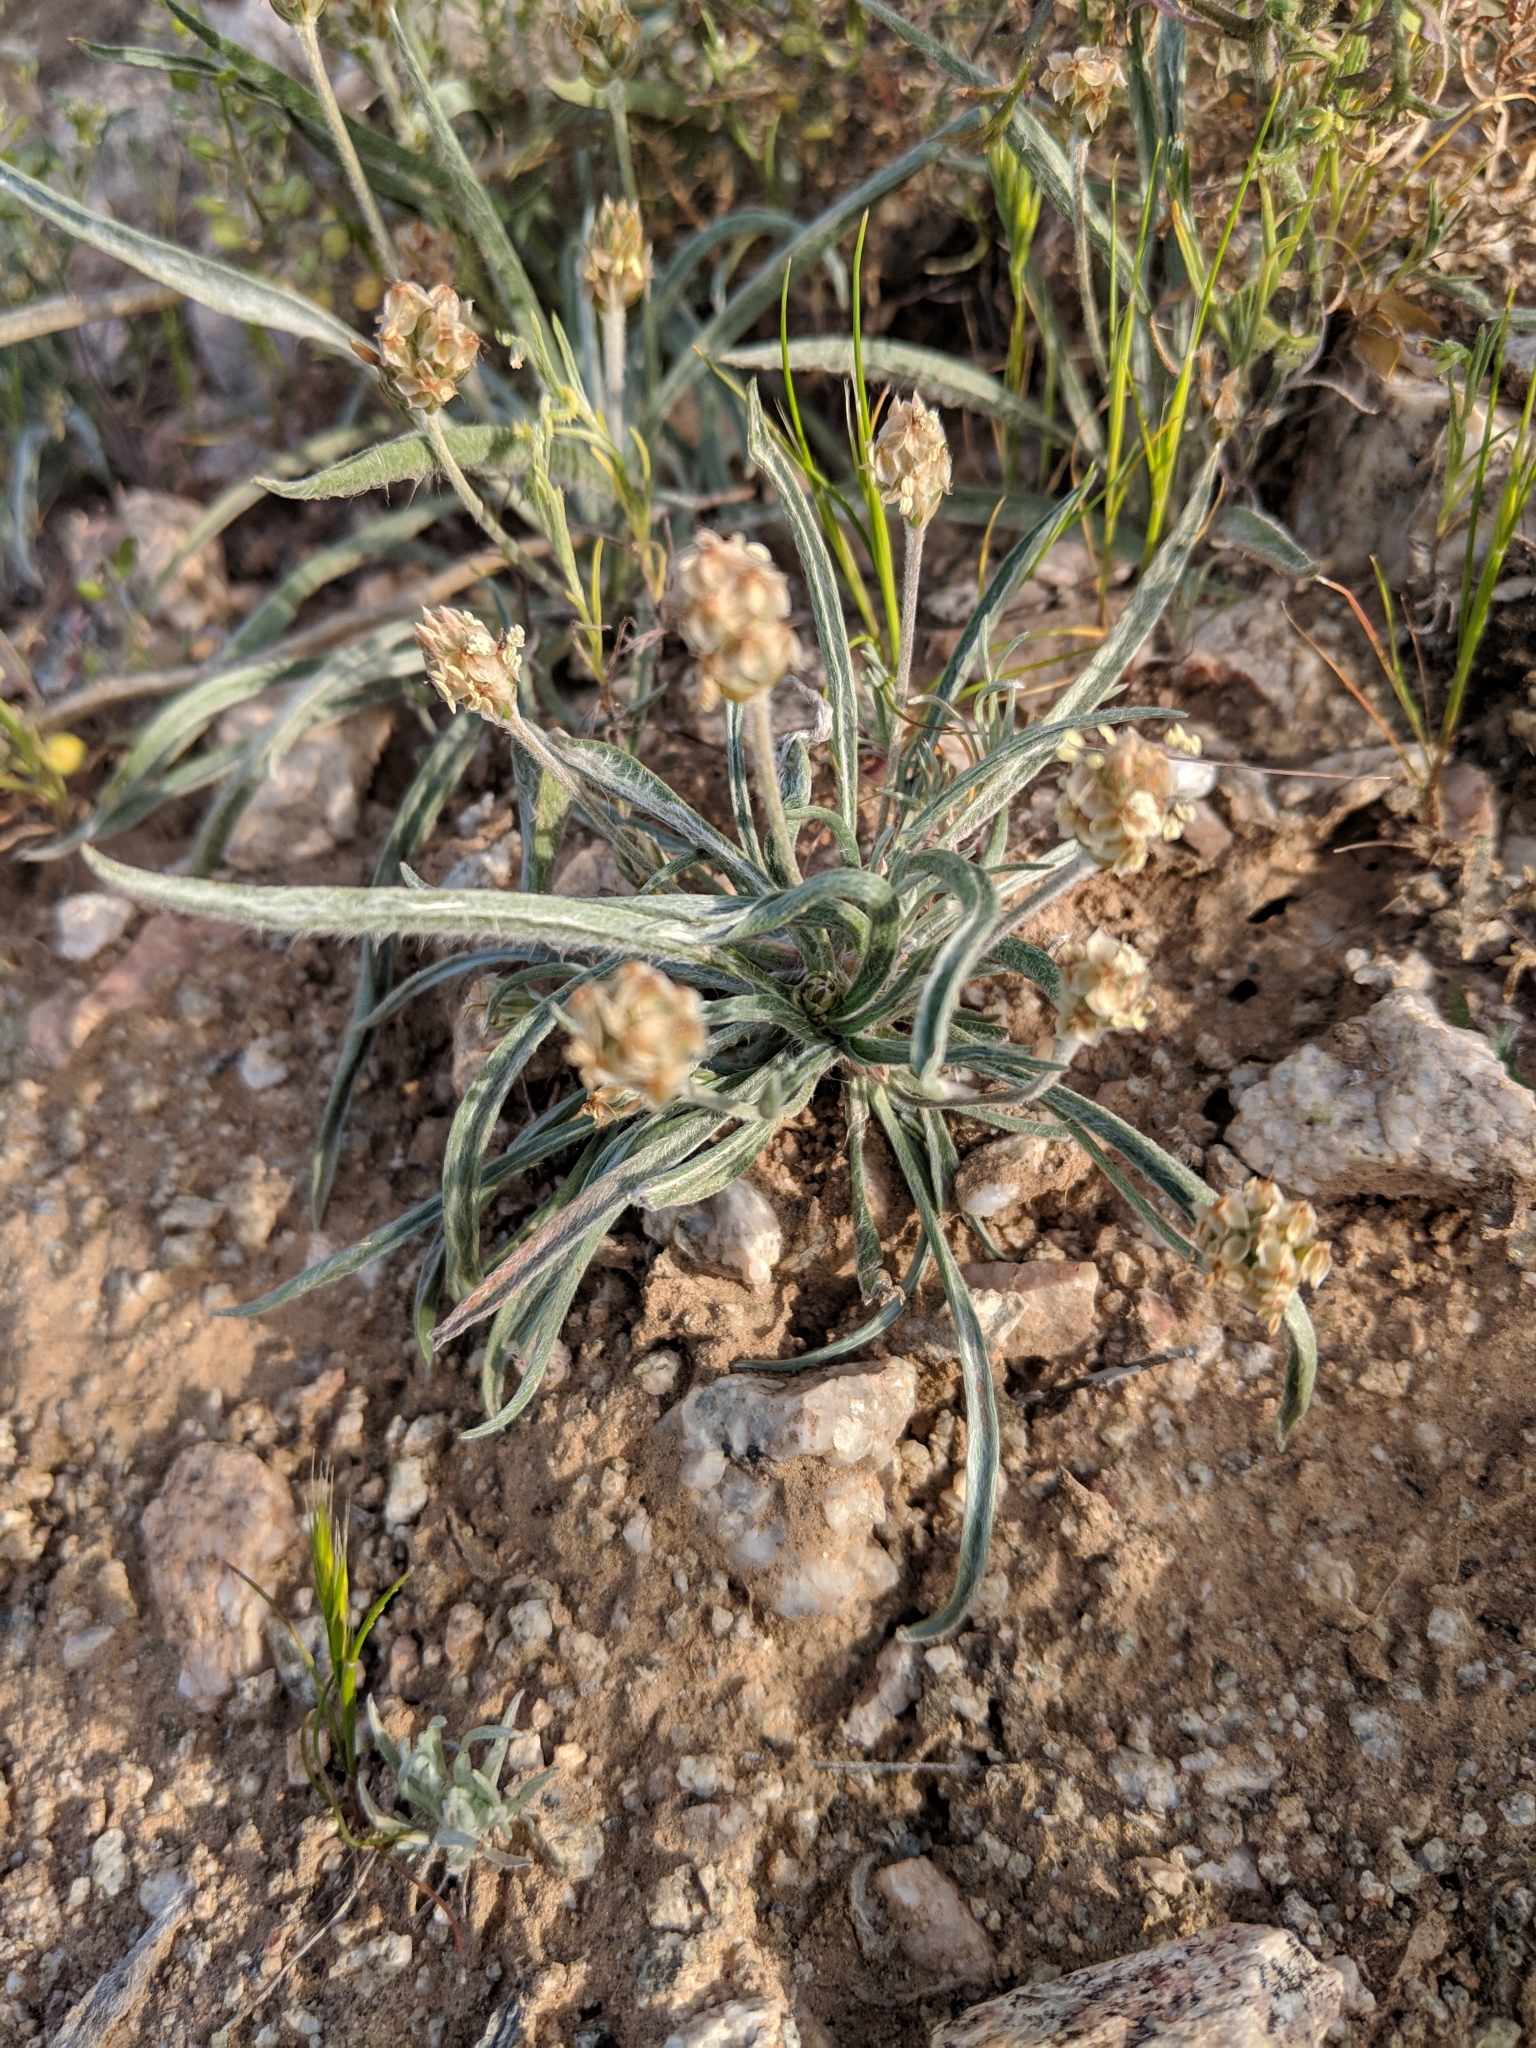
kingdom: Plantae
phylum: Tracheophyta
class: Magnoliopsida
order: Lamiales
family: Plantaginaceae
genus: Plantago
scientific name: Plantago ovata
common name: Blond plantain
